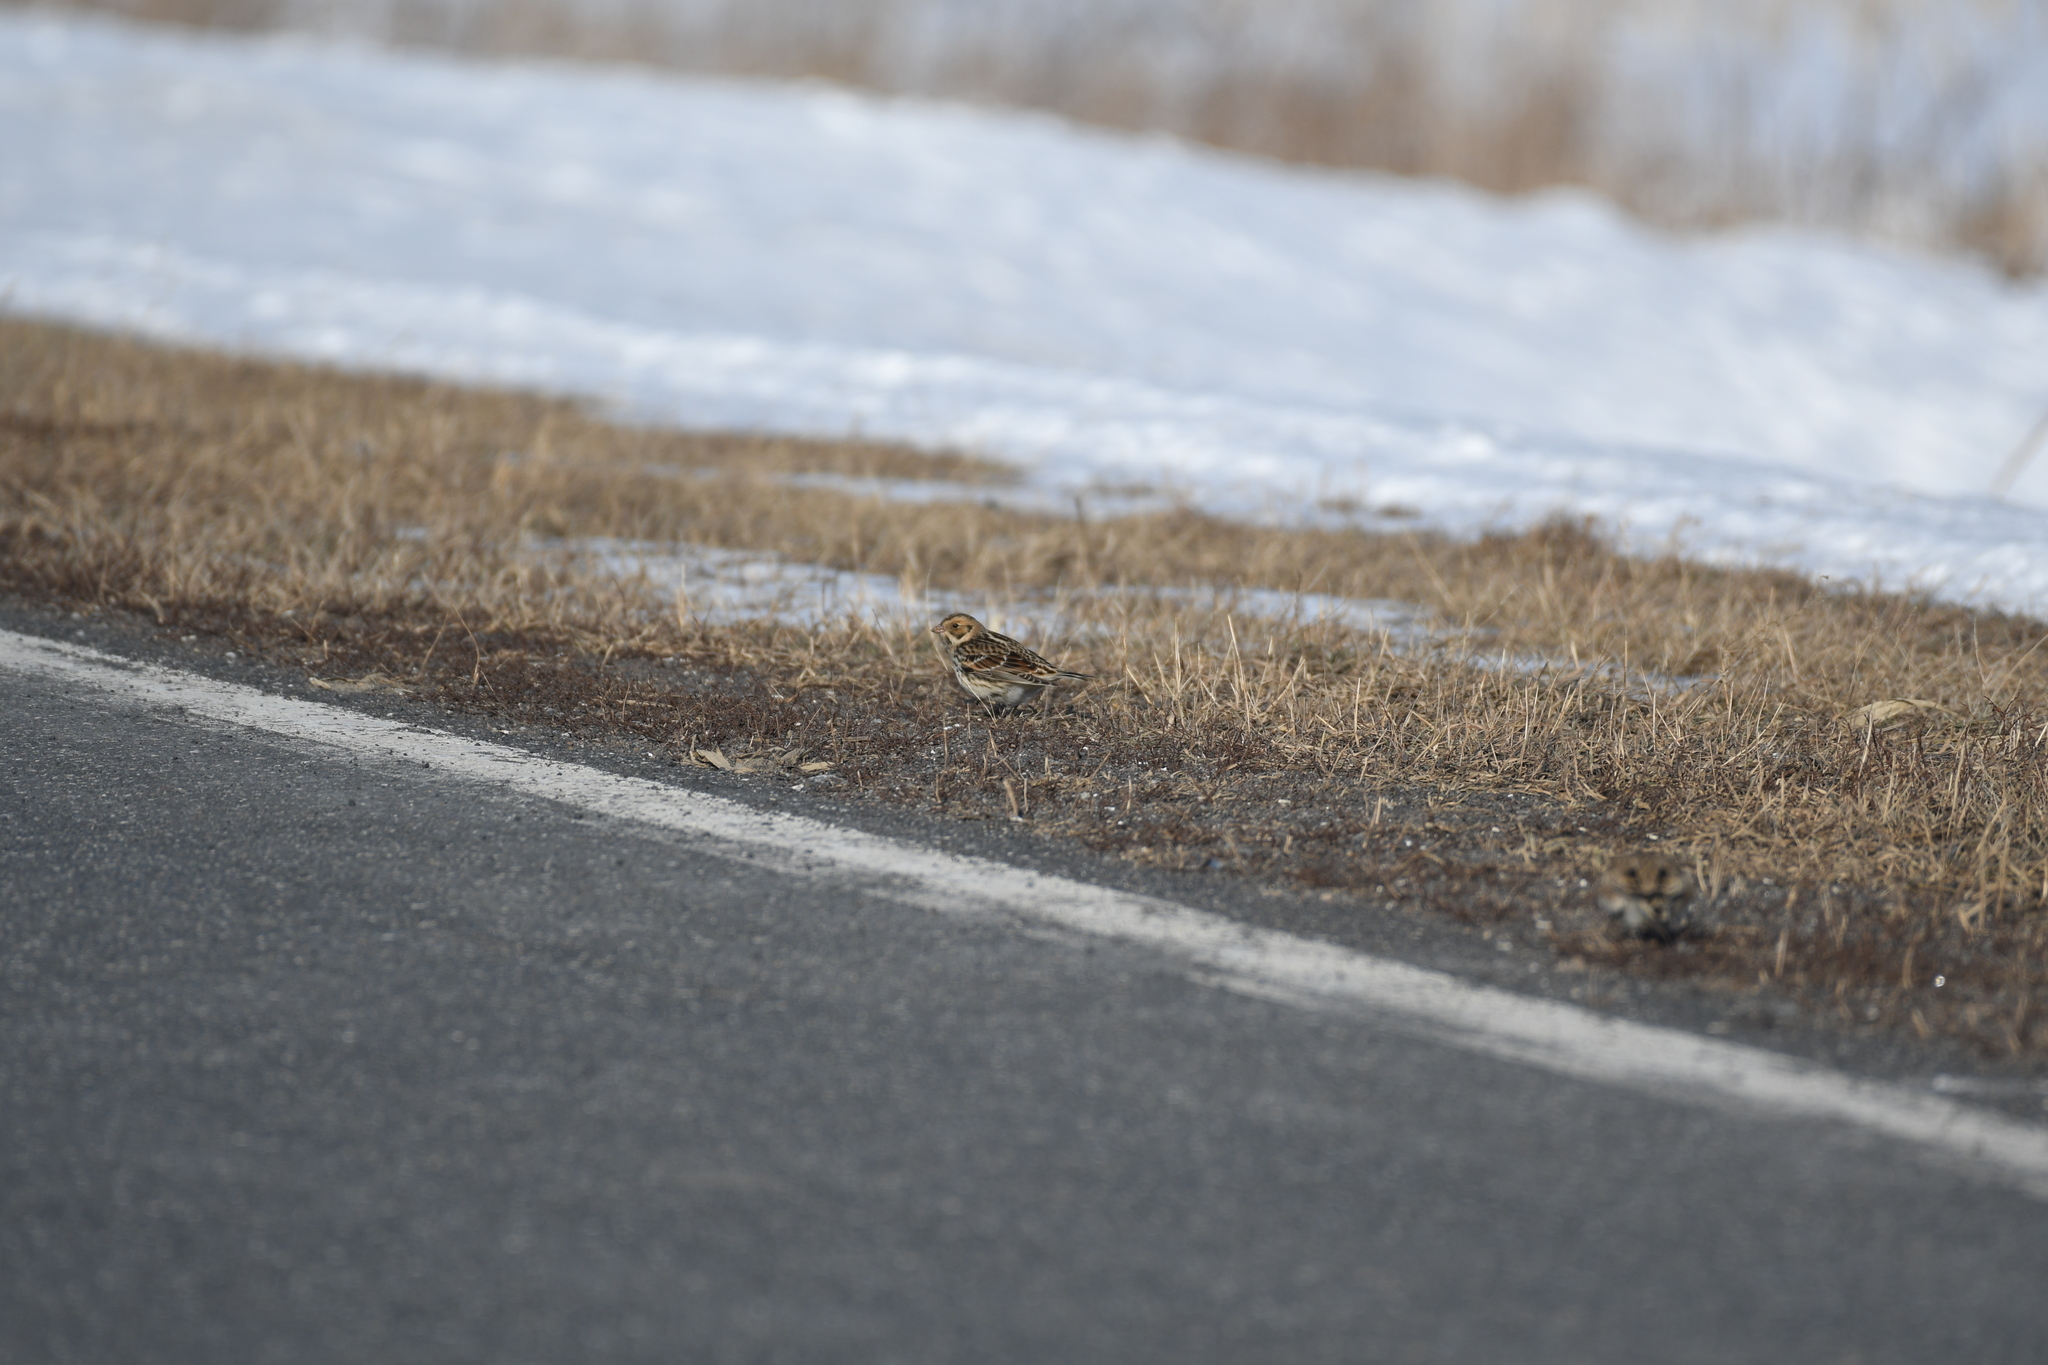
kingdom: Animalia
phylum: Chordata
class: Aves
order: Passeriformes
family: Calcariidae
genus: Calcarius
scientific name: Calcarius lapponicus
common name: Lapland longspur
